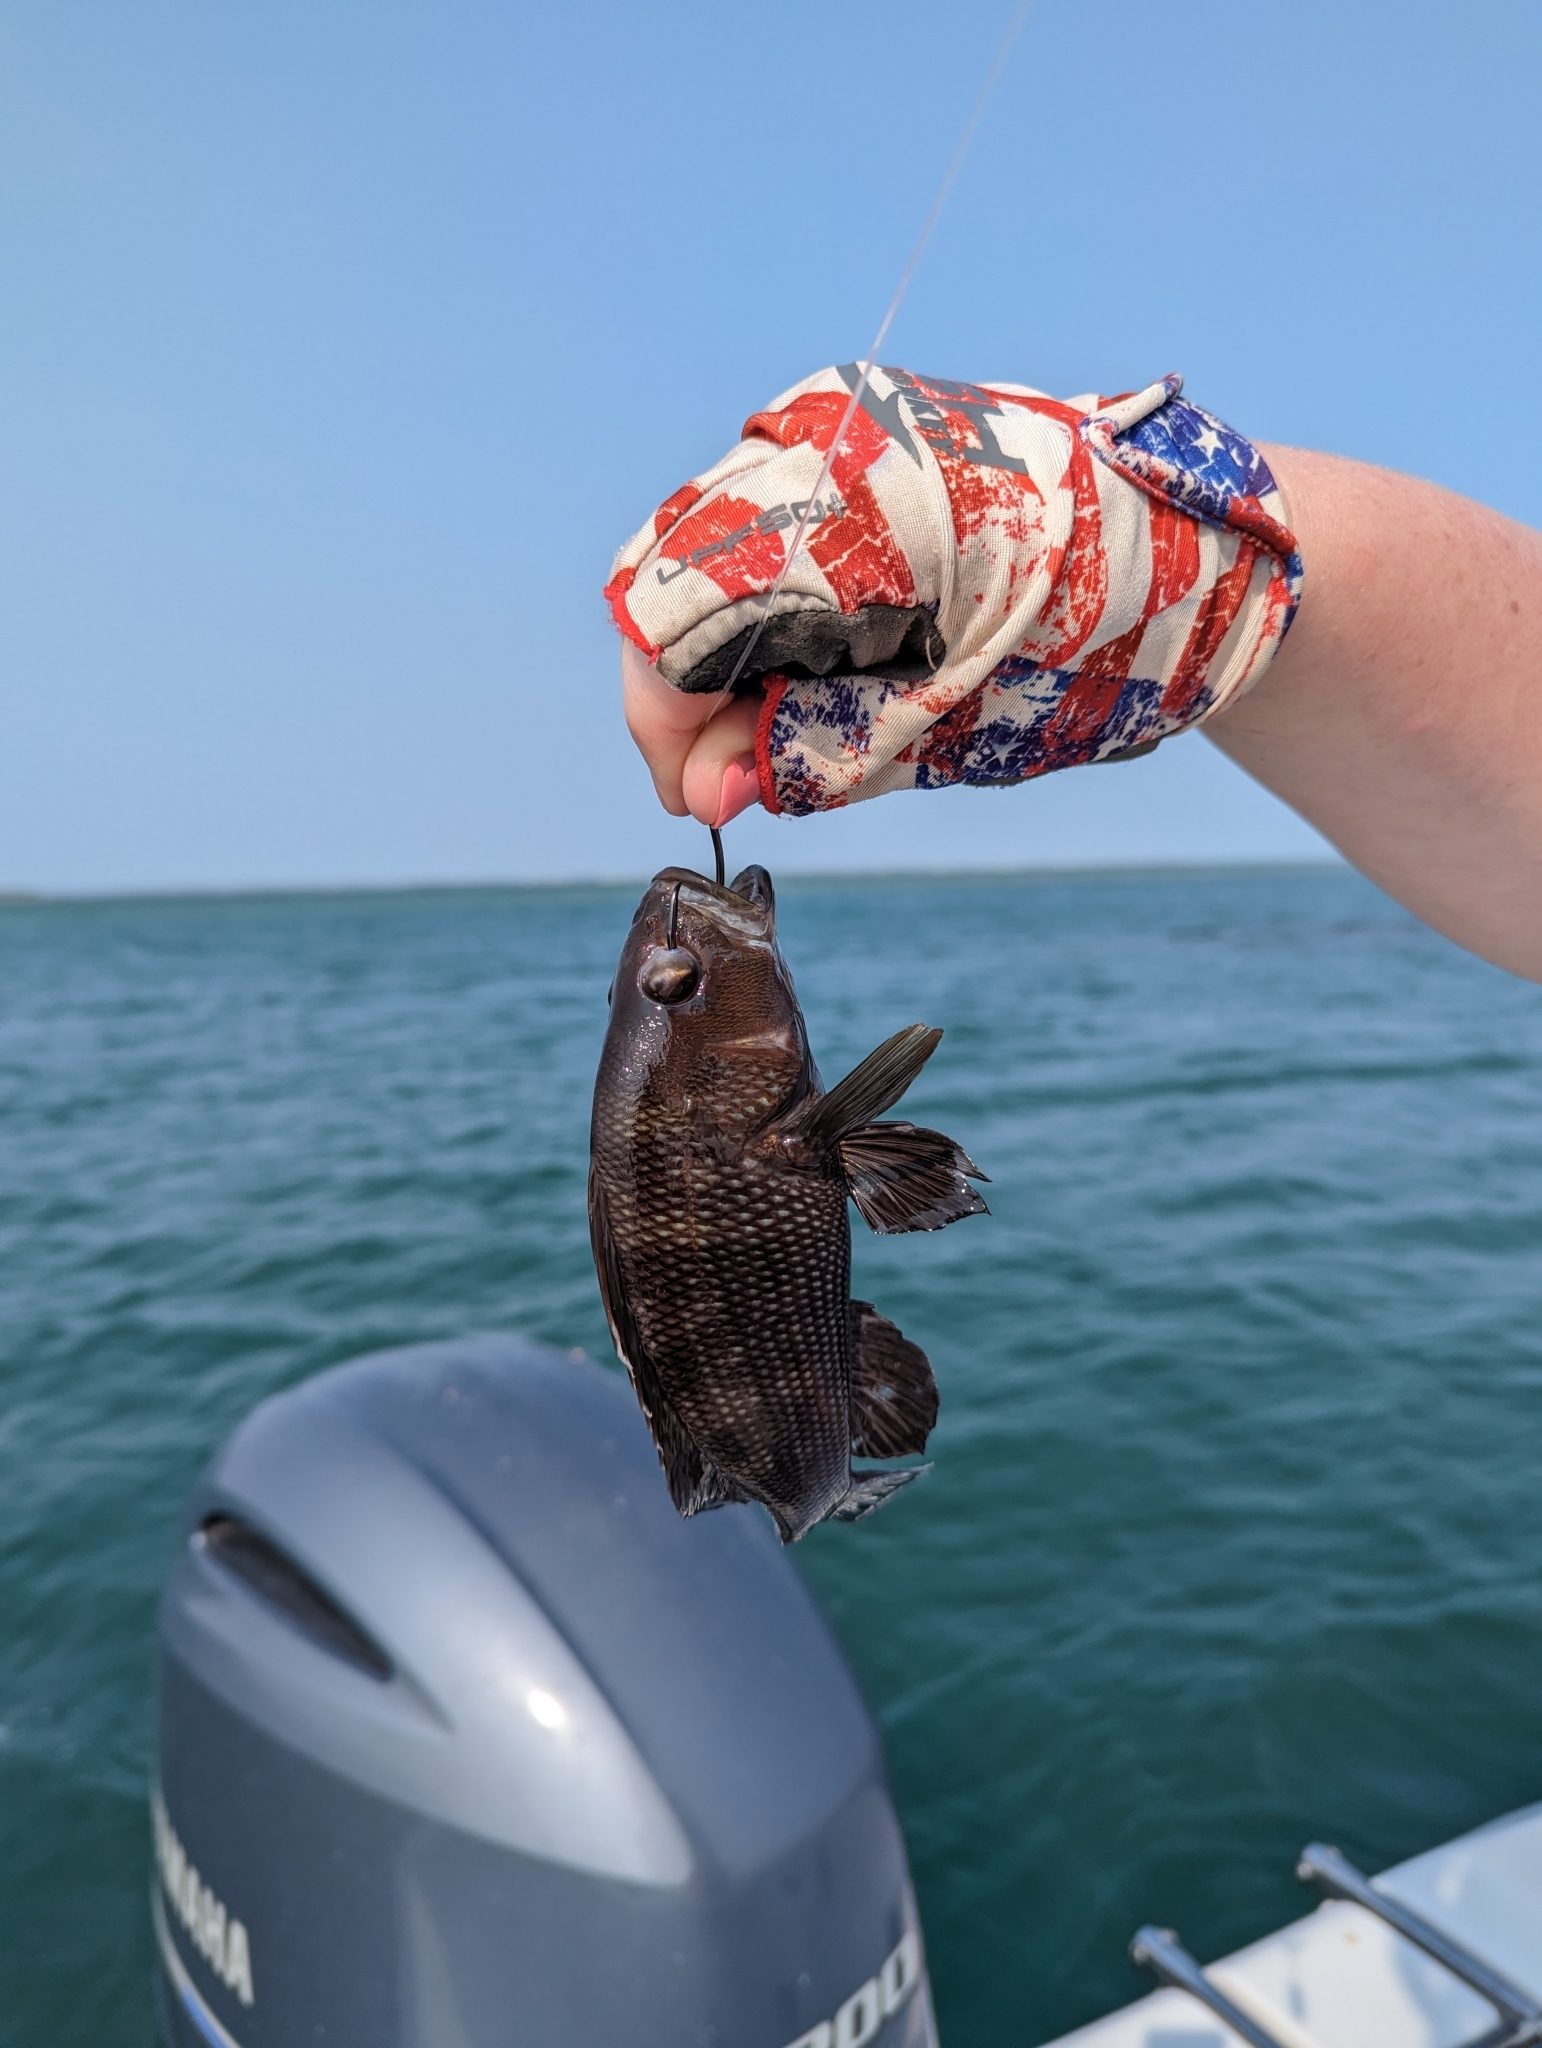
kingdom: Animalia
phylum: Chordata
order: Perciformes
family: Serranidae
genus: Centropristis
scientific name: Centropristis striata
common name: Black sea bass
